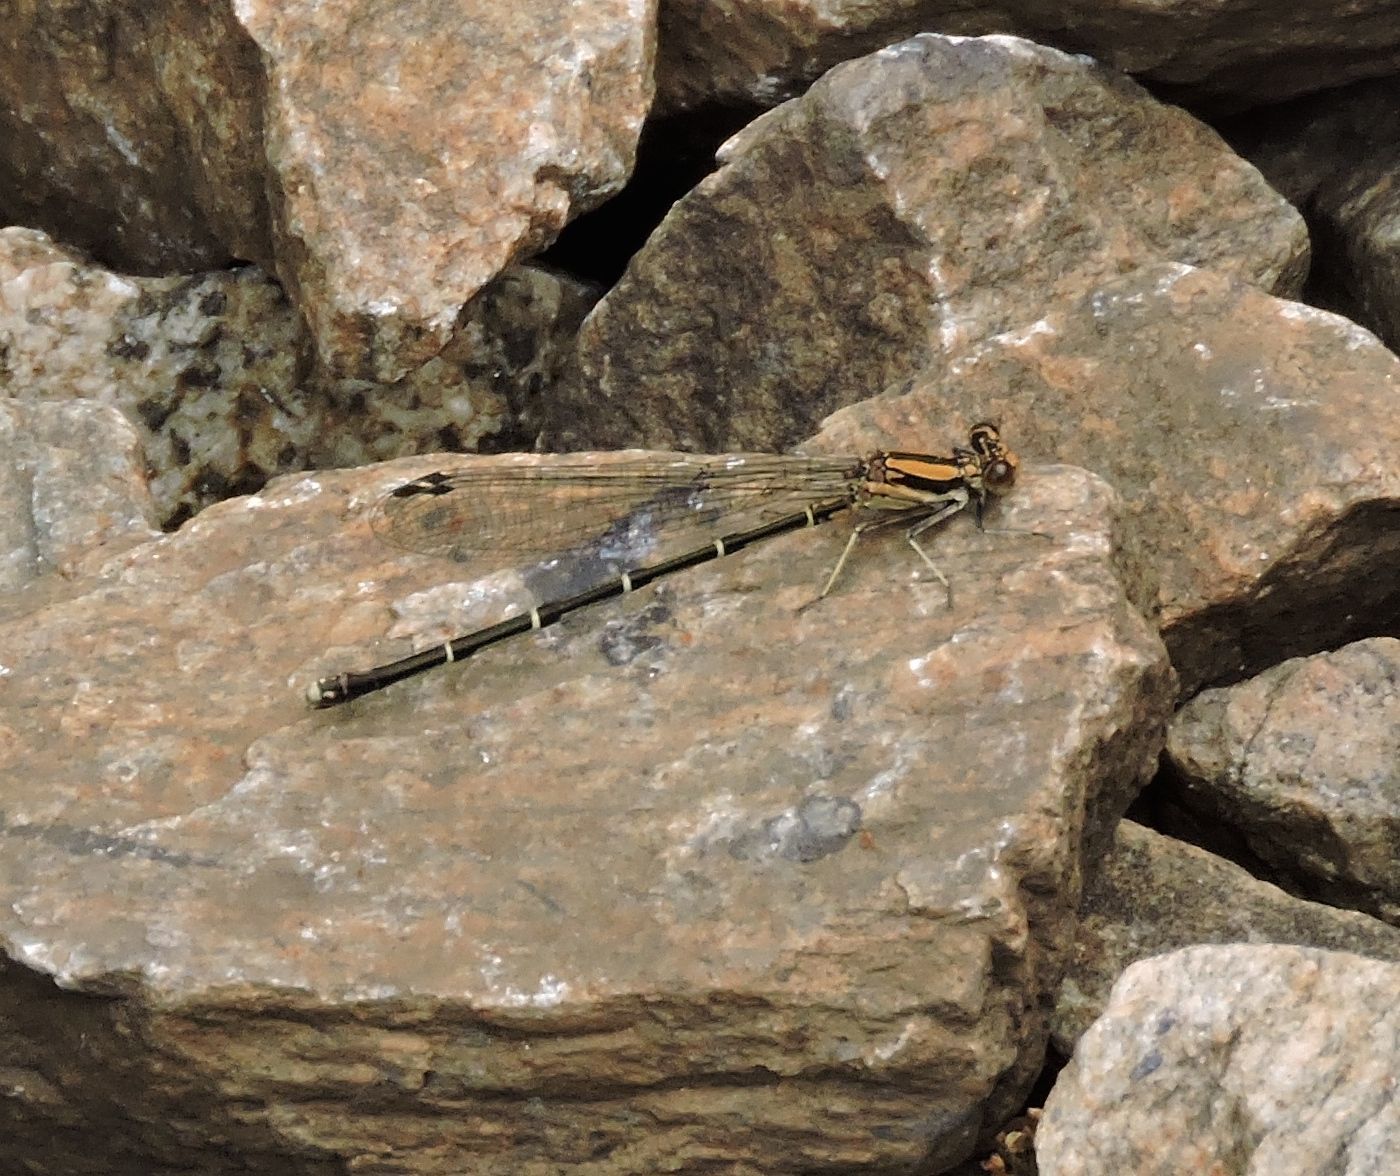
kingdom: Animalia
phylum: Arthropoda
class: Insecta
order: Odonata
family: Coenagrionidae
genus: Argia
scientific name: Argia tibialis
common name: Blue-tipped dancer
